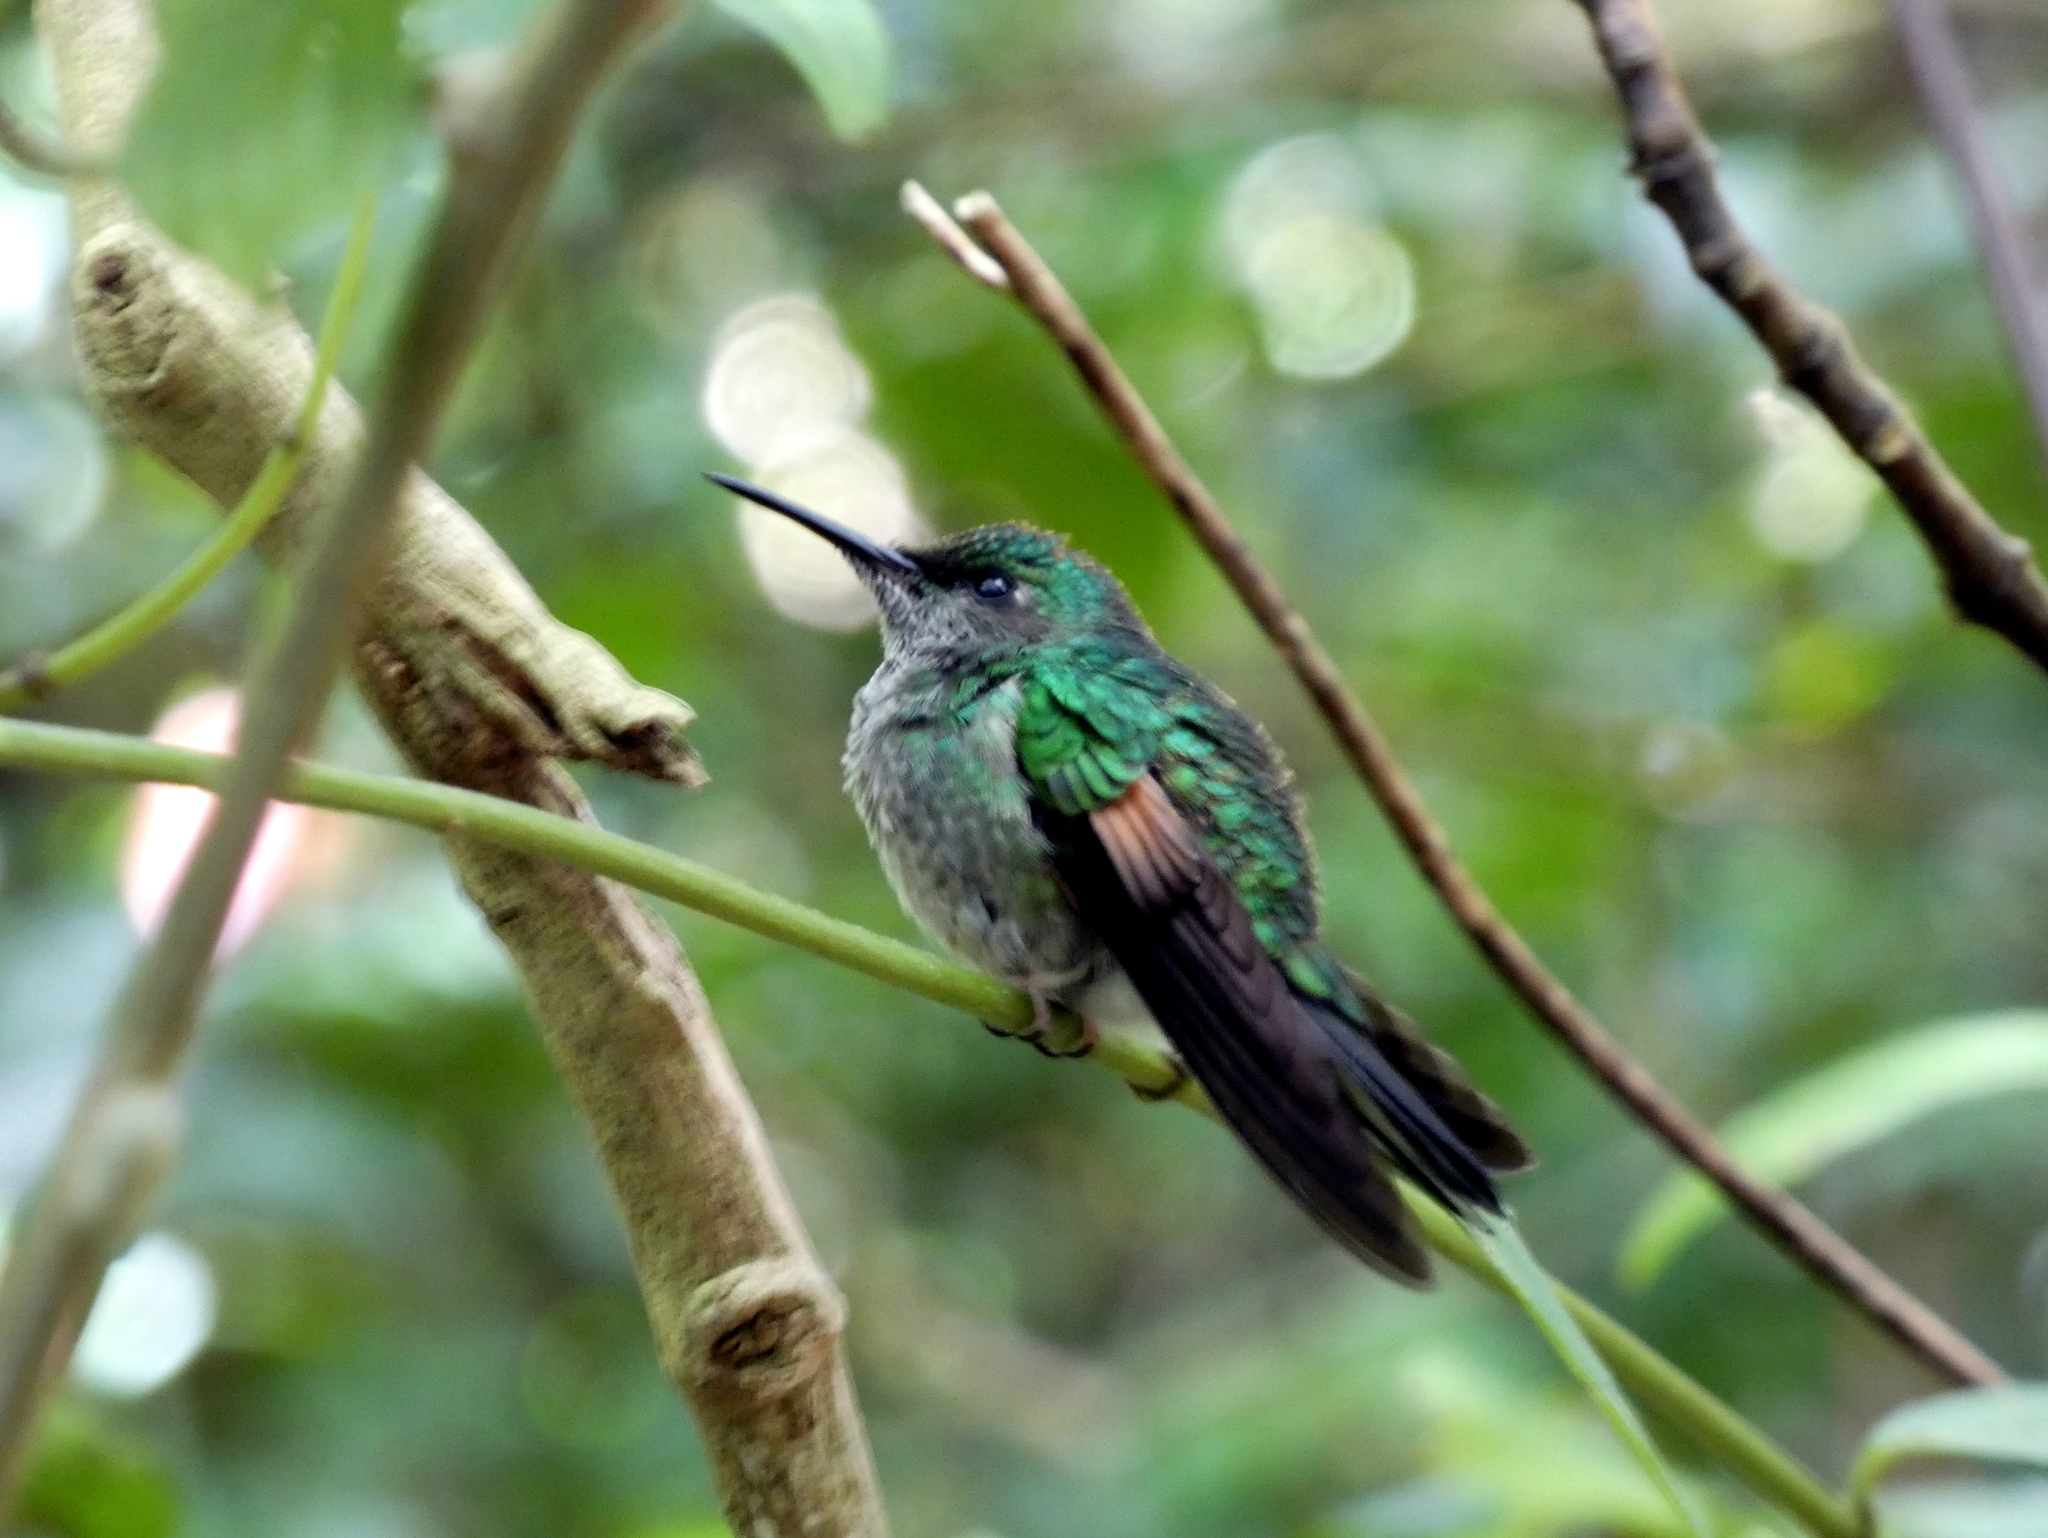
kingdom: Animalia
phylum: Chordata
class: Aves
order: Apodiformes
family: Trochilidae
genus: Eupherusa
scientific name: Eupherusa eximia
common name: Stripe-tailed hummingbird
